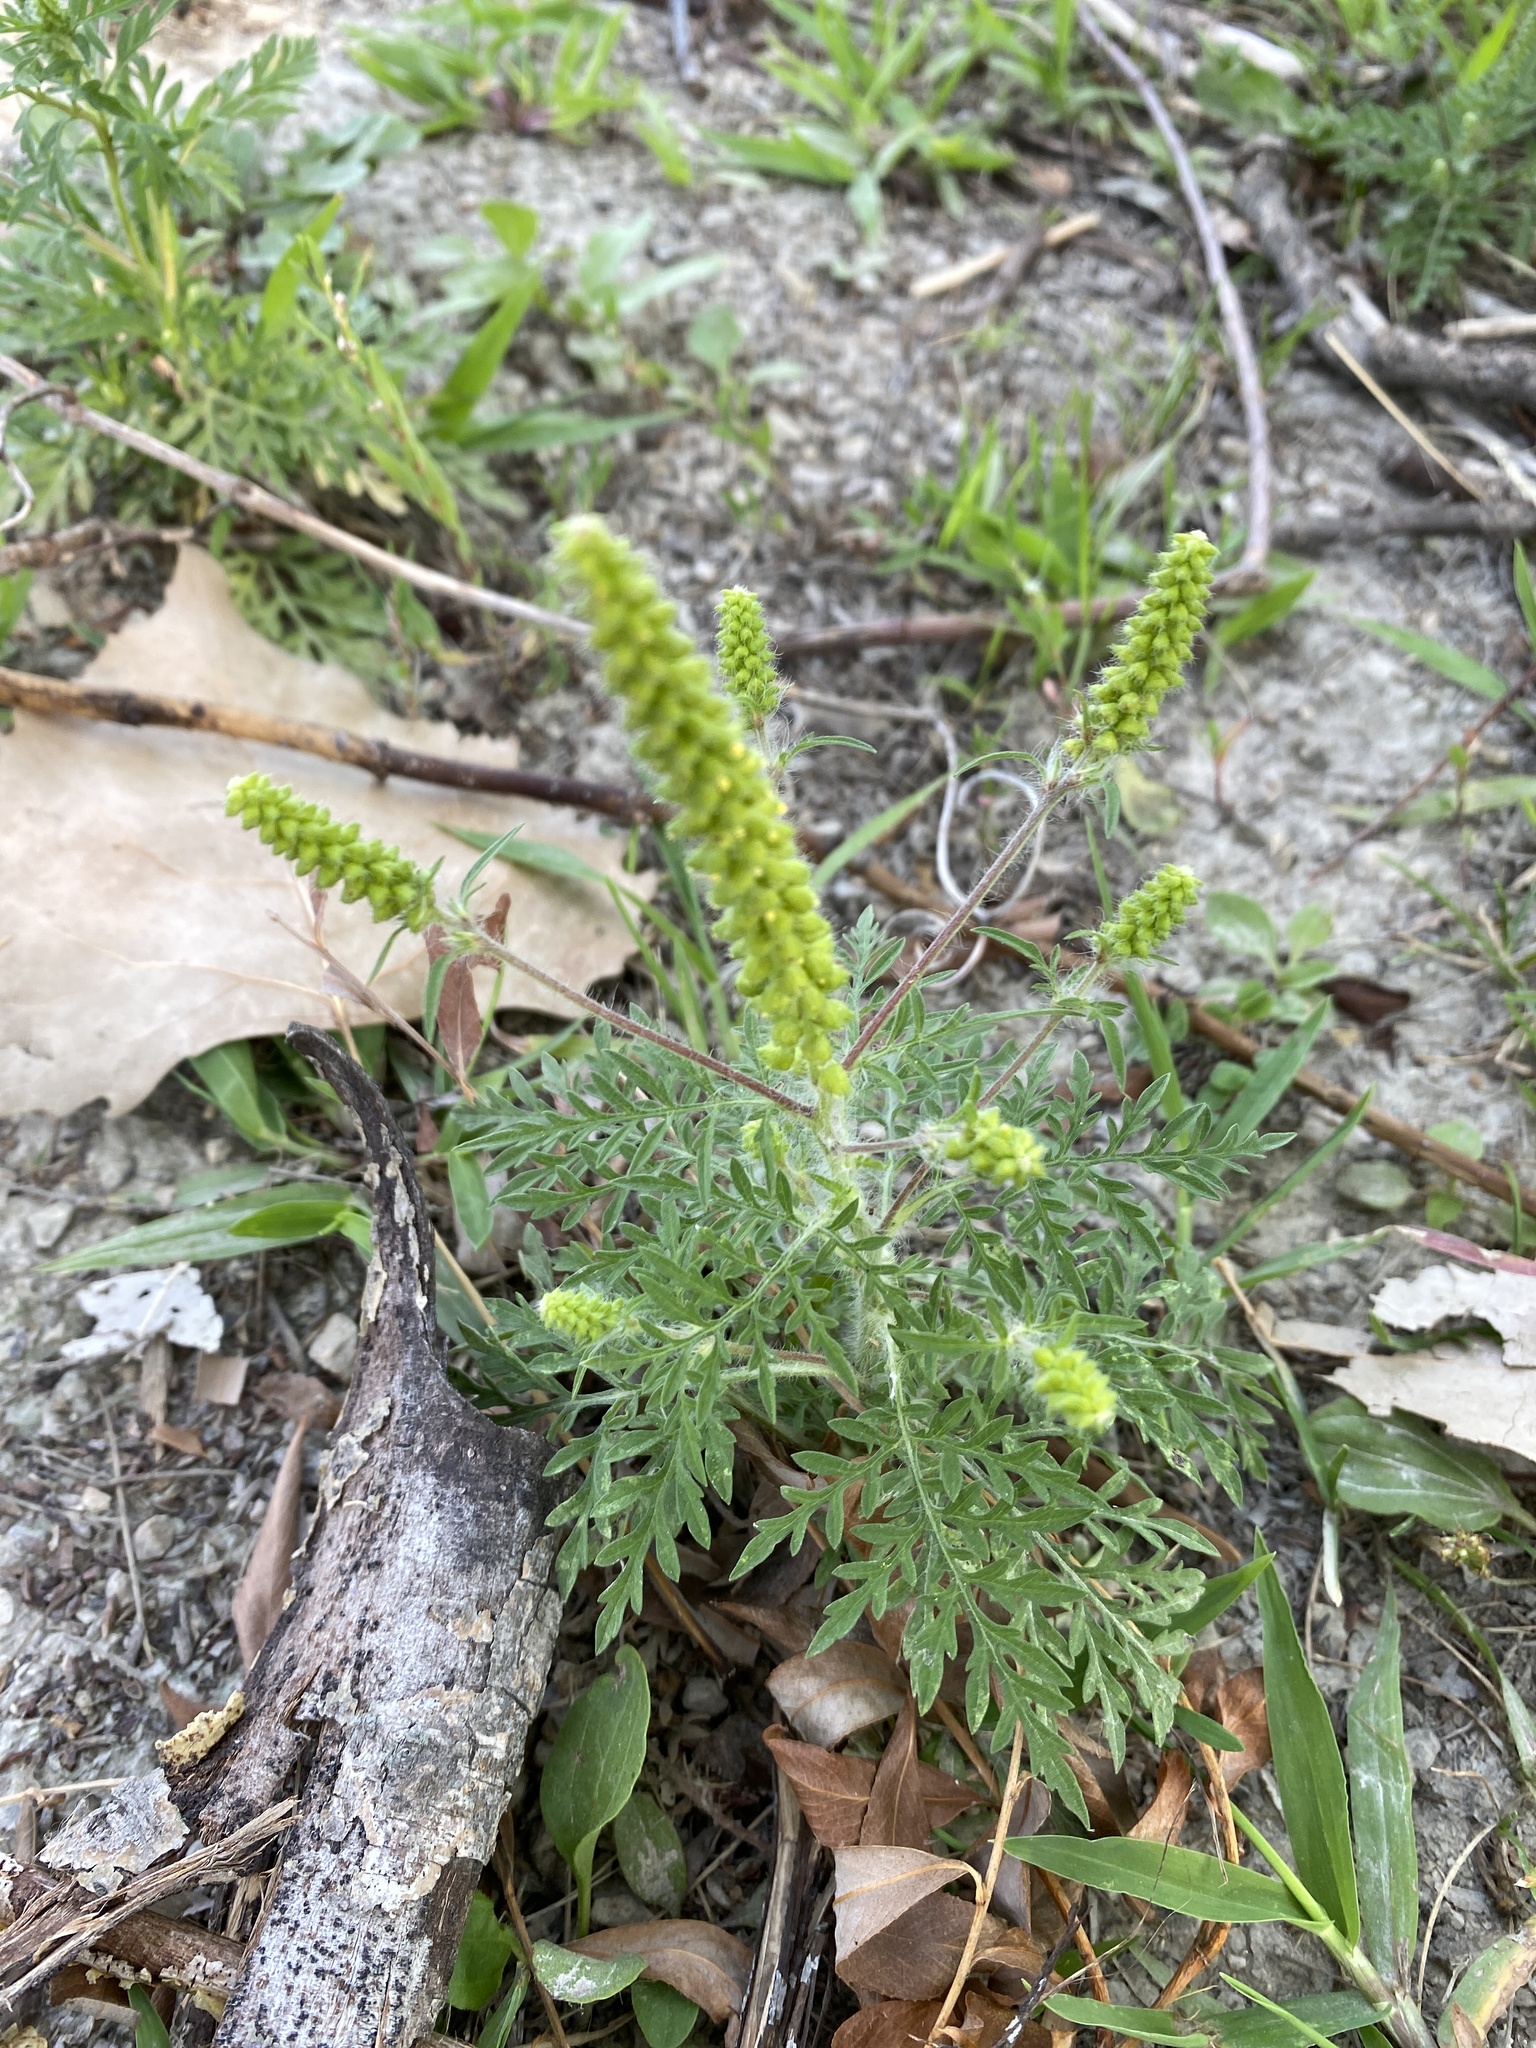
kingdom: Plantae
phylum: Tracheophyta
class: Magnoliopsida
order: Asterales
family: Asteraceae
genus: Ambrosia
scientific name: Ambrosia artemisiifolia
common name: Annual ragweed
